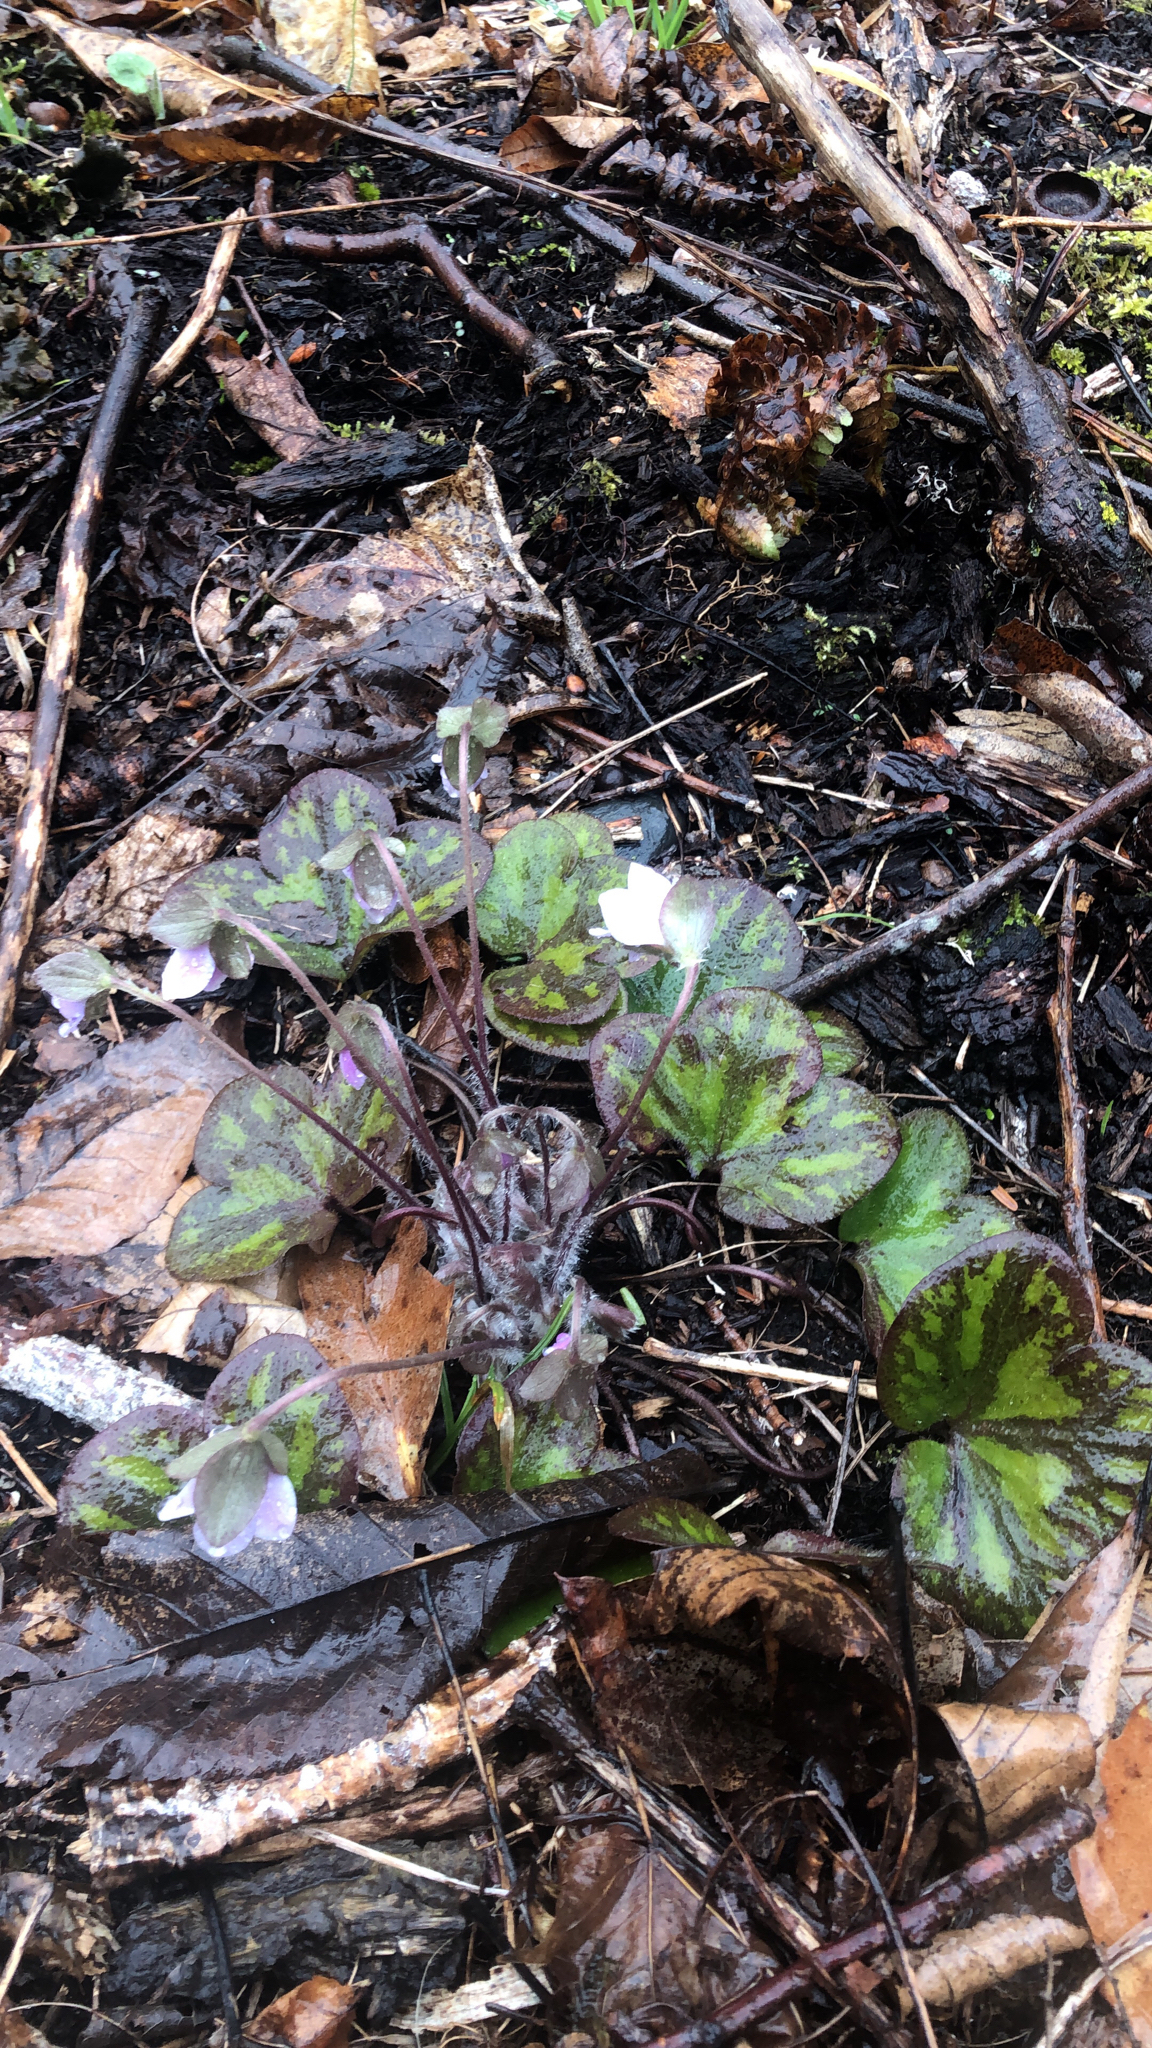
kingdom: Plantae
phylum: Tracheophyta
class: Magnoliopsida
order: Ranunculales
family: Ranunculaceae
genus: Hepatica
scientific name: Hepatica americana
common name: American hepatica
